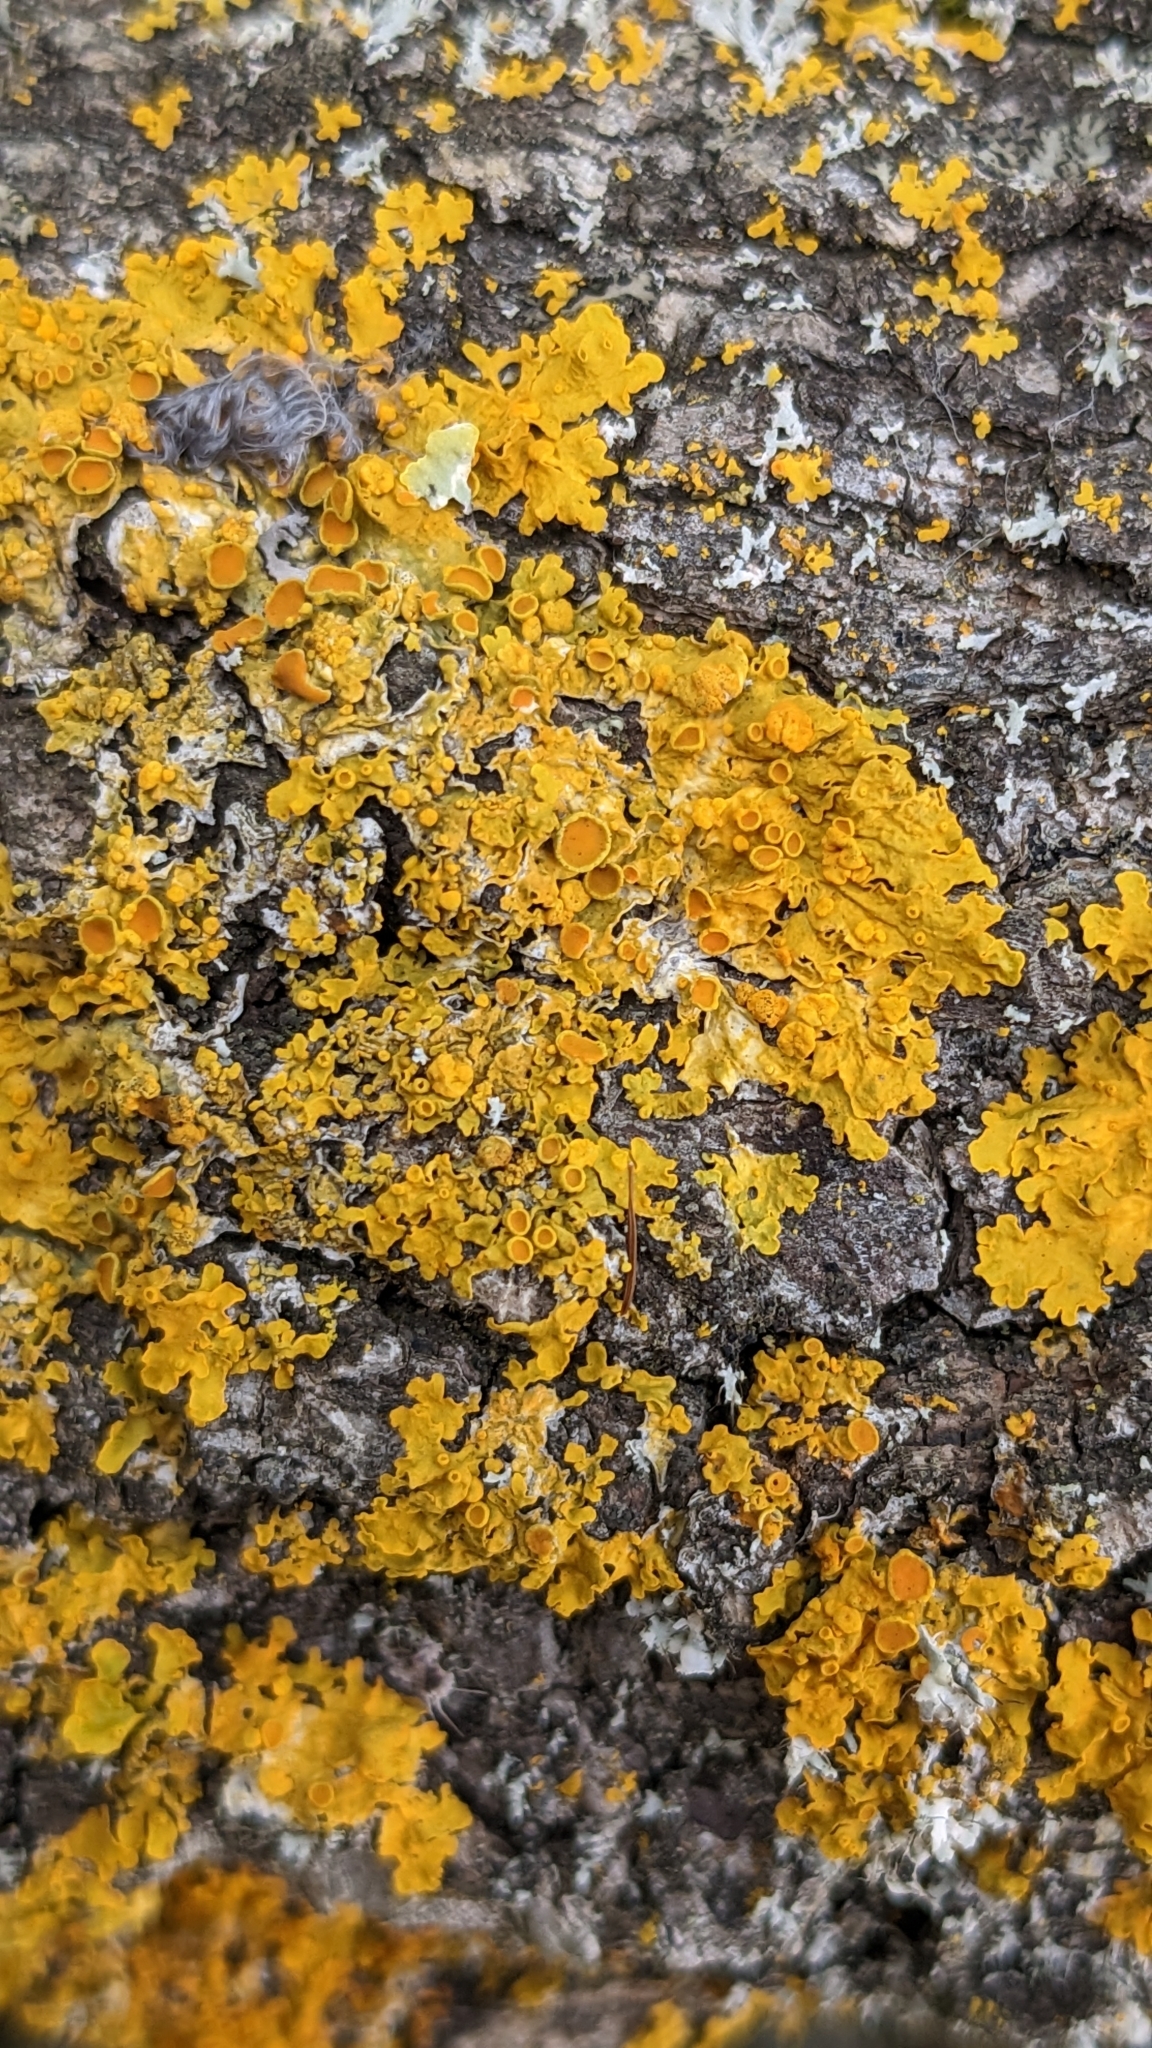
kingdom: Fungi
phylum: Ascomycota
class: Lecanoromycetes
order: Teloschistales
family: Teloschistaceae
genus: Xanthoria
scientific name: Xanthoria parietina
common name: Common orange lichen
